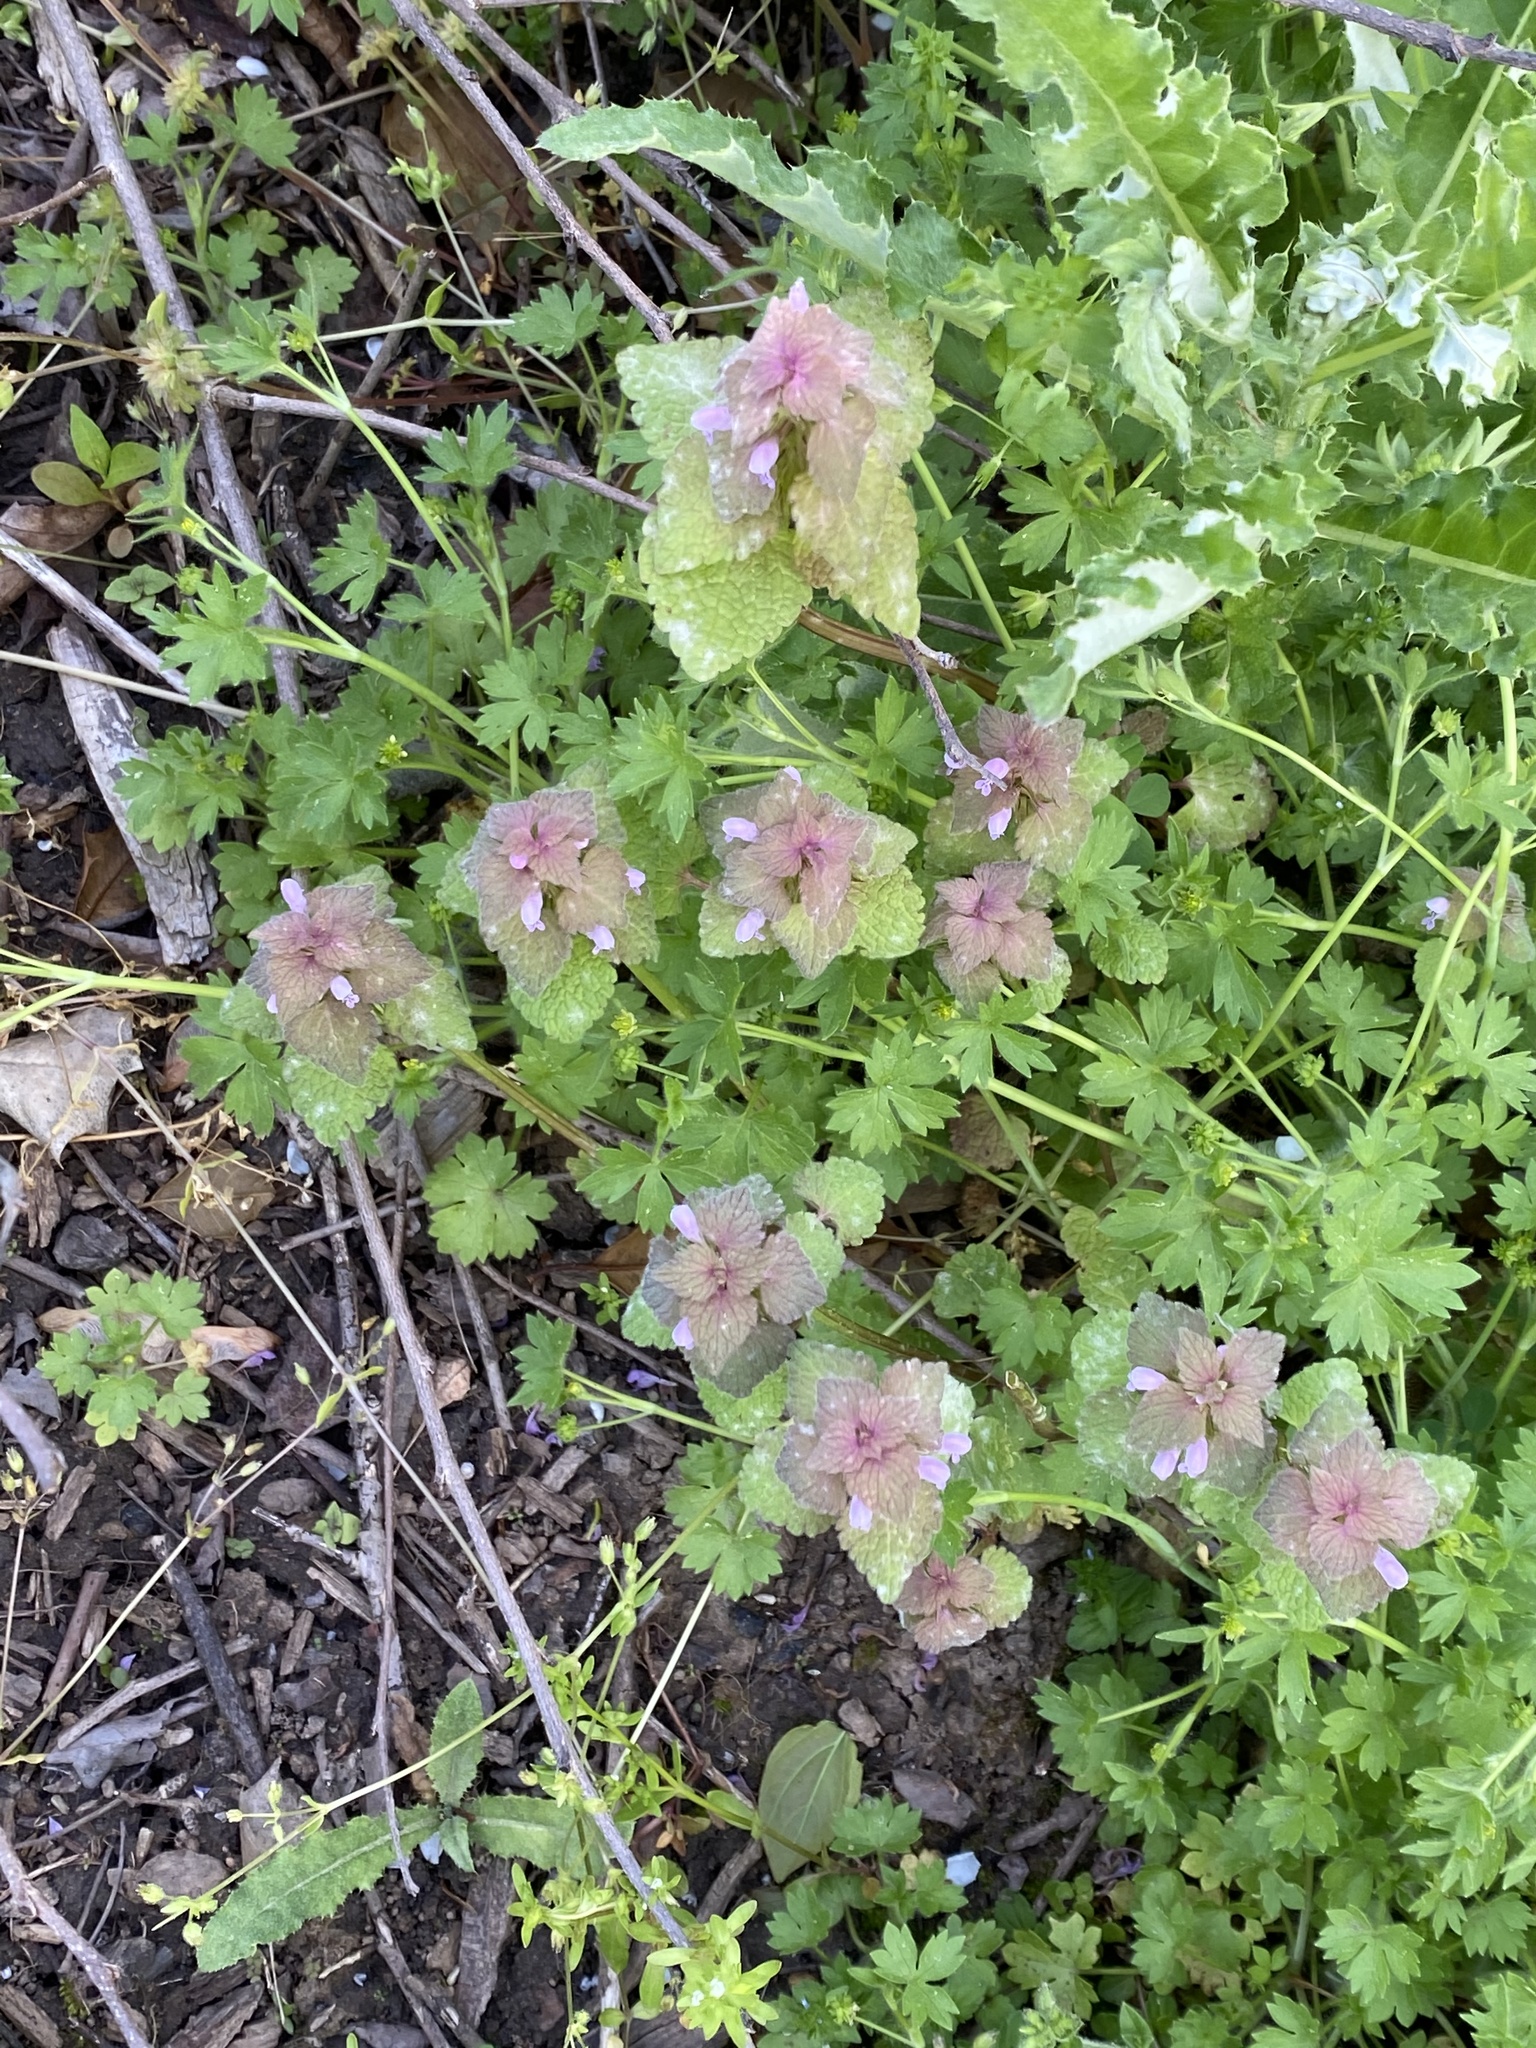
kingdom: Plantae
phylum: Tracheophyta
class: Magnoliopsida
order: Lamiales
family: Lamiaceae
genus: Lamium
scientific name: Lamium purpureum
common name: Red dead-nettle
